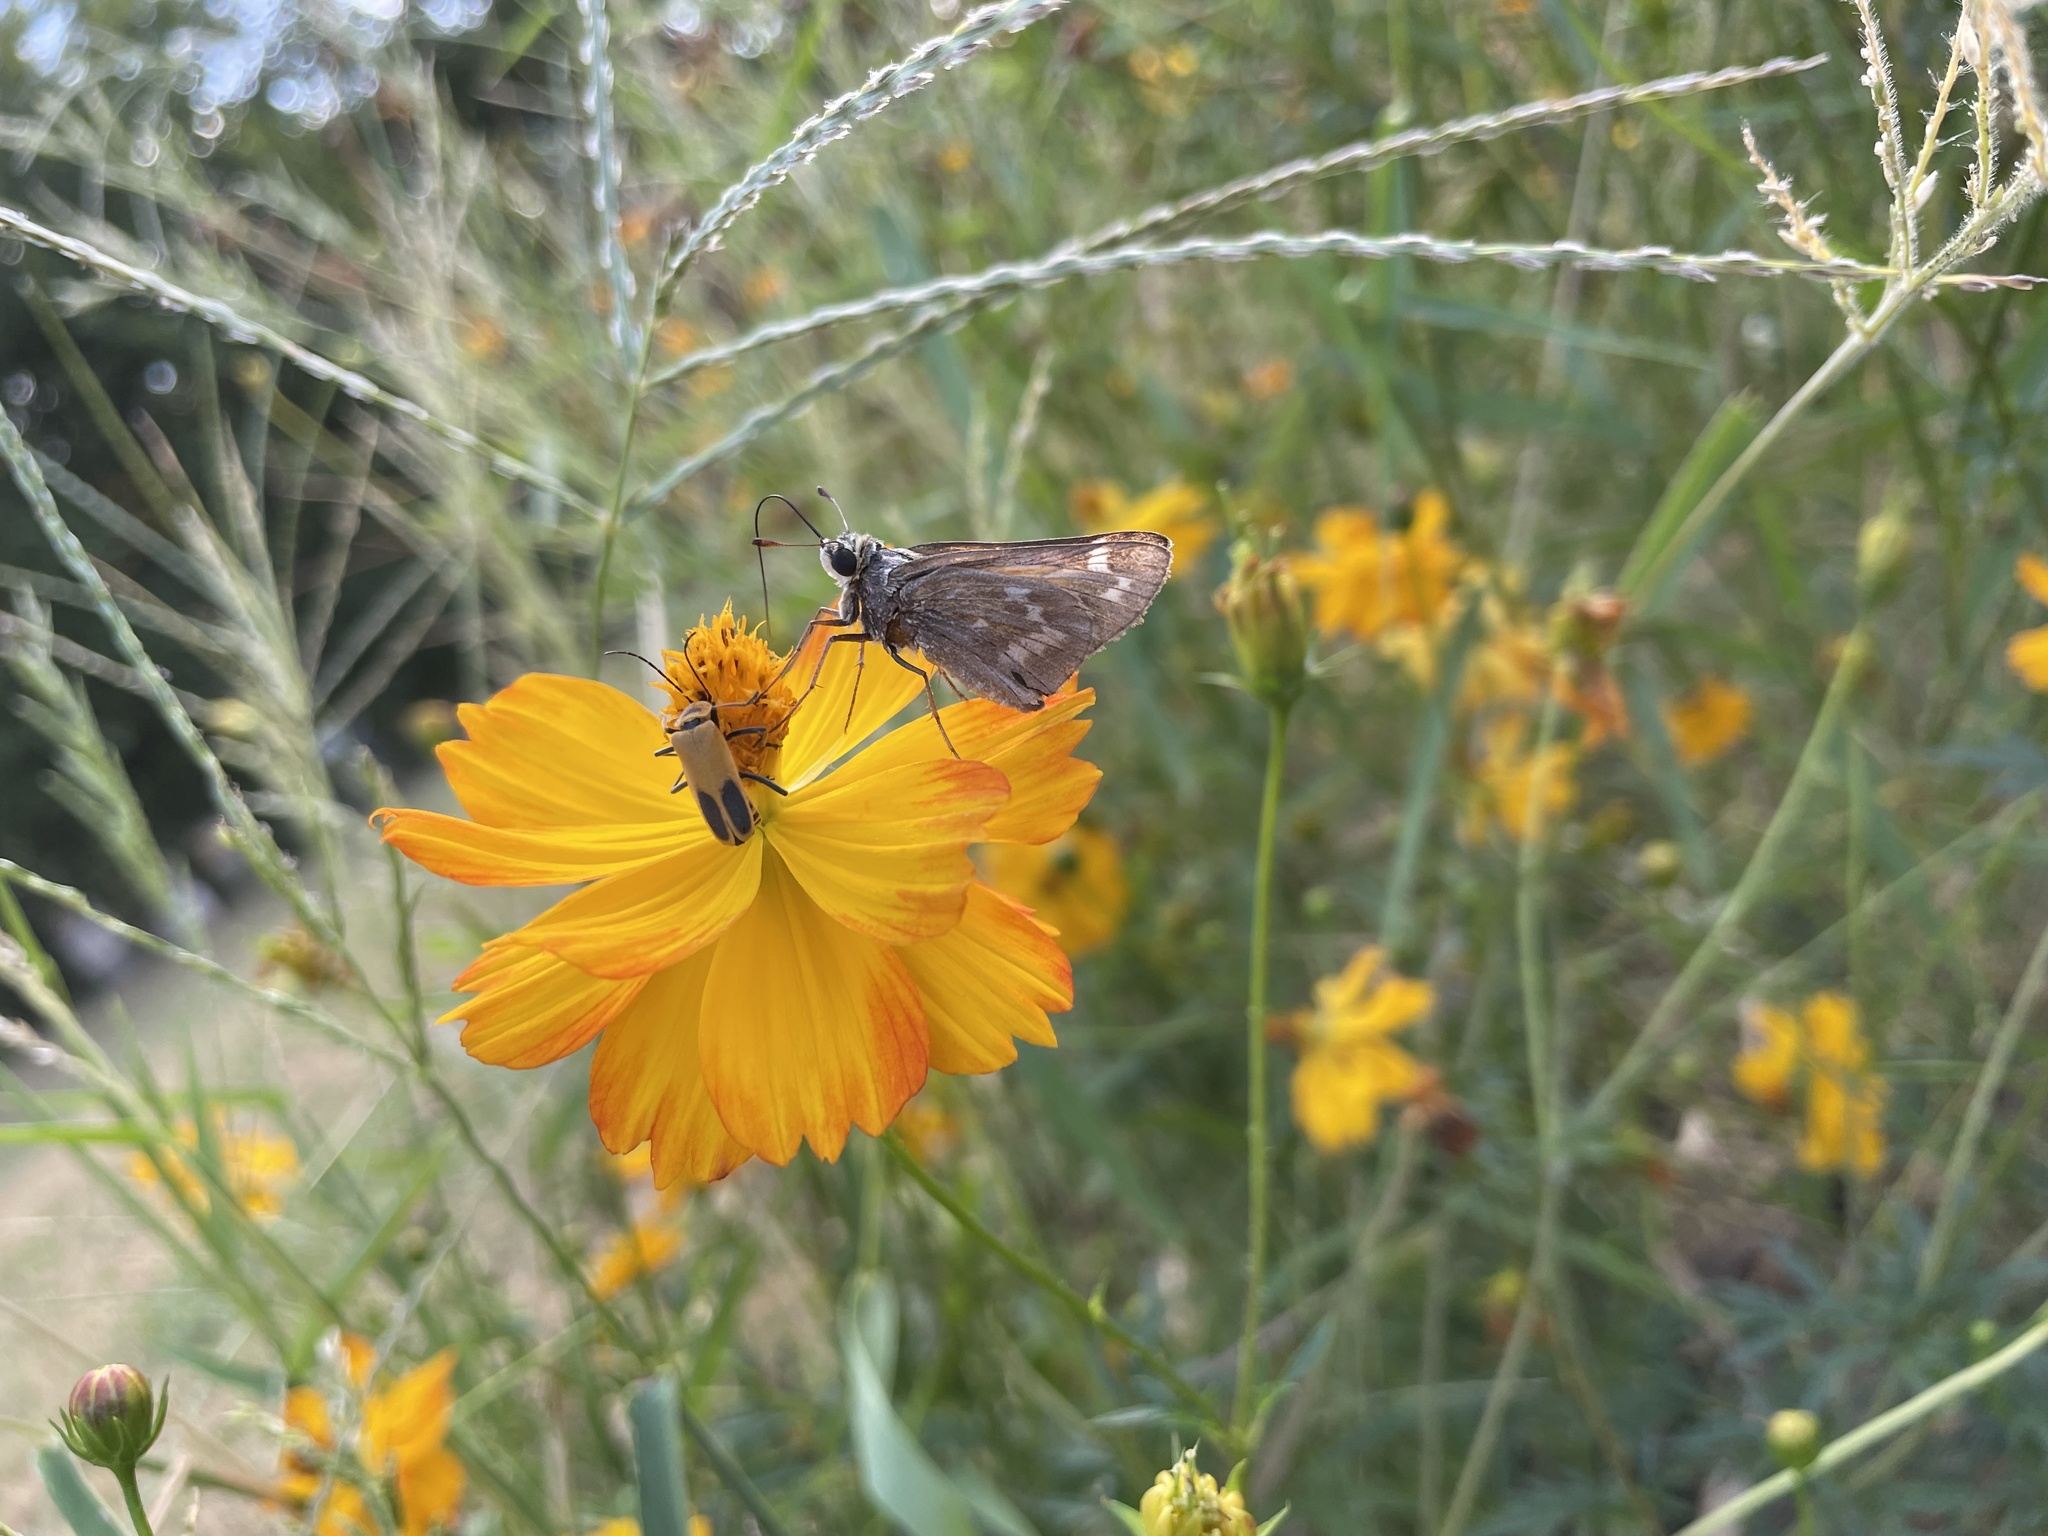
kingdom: Animalia
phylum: Arthropoda
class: Insecta
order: Lepidoptera
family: Hesperiidae
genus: Atalopedes
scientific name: Atalopedes
